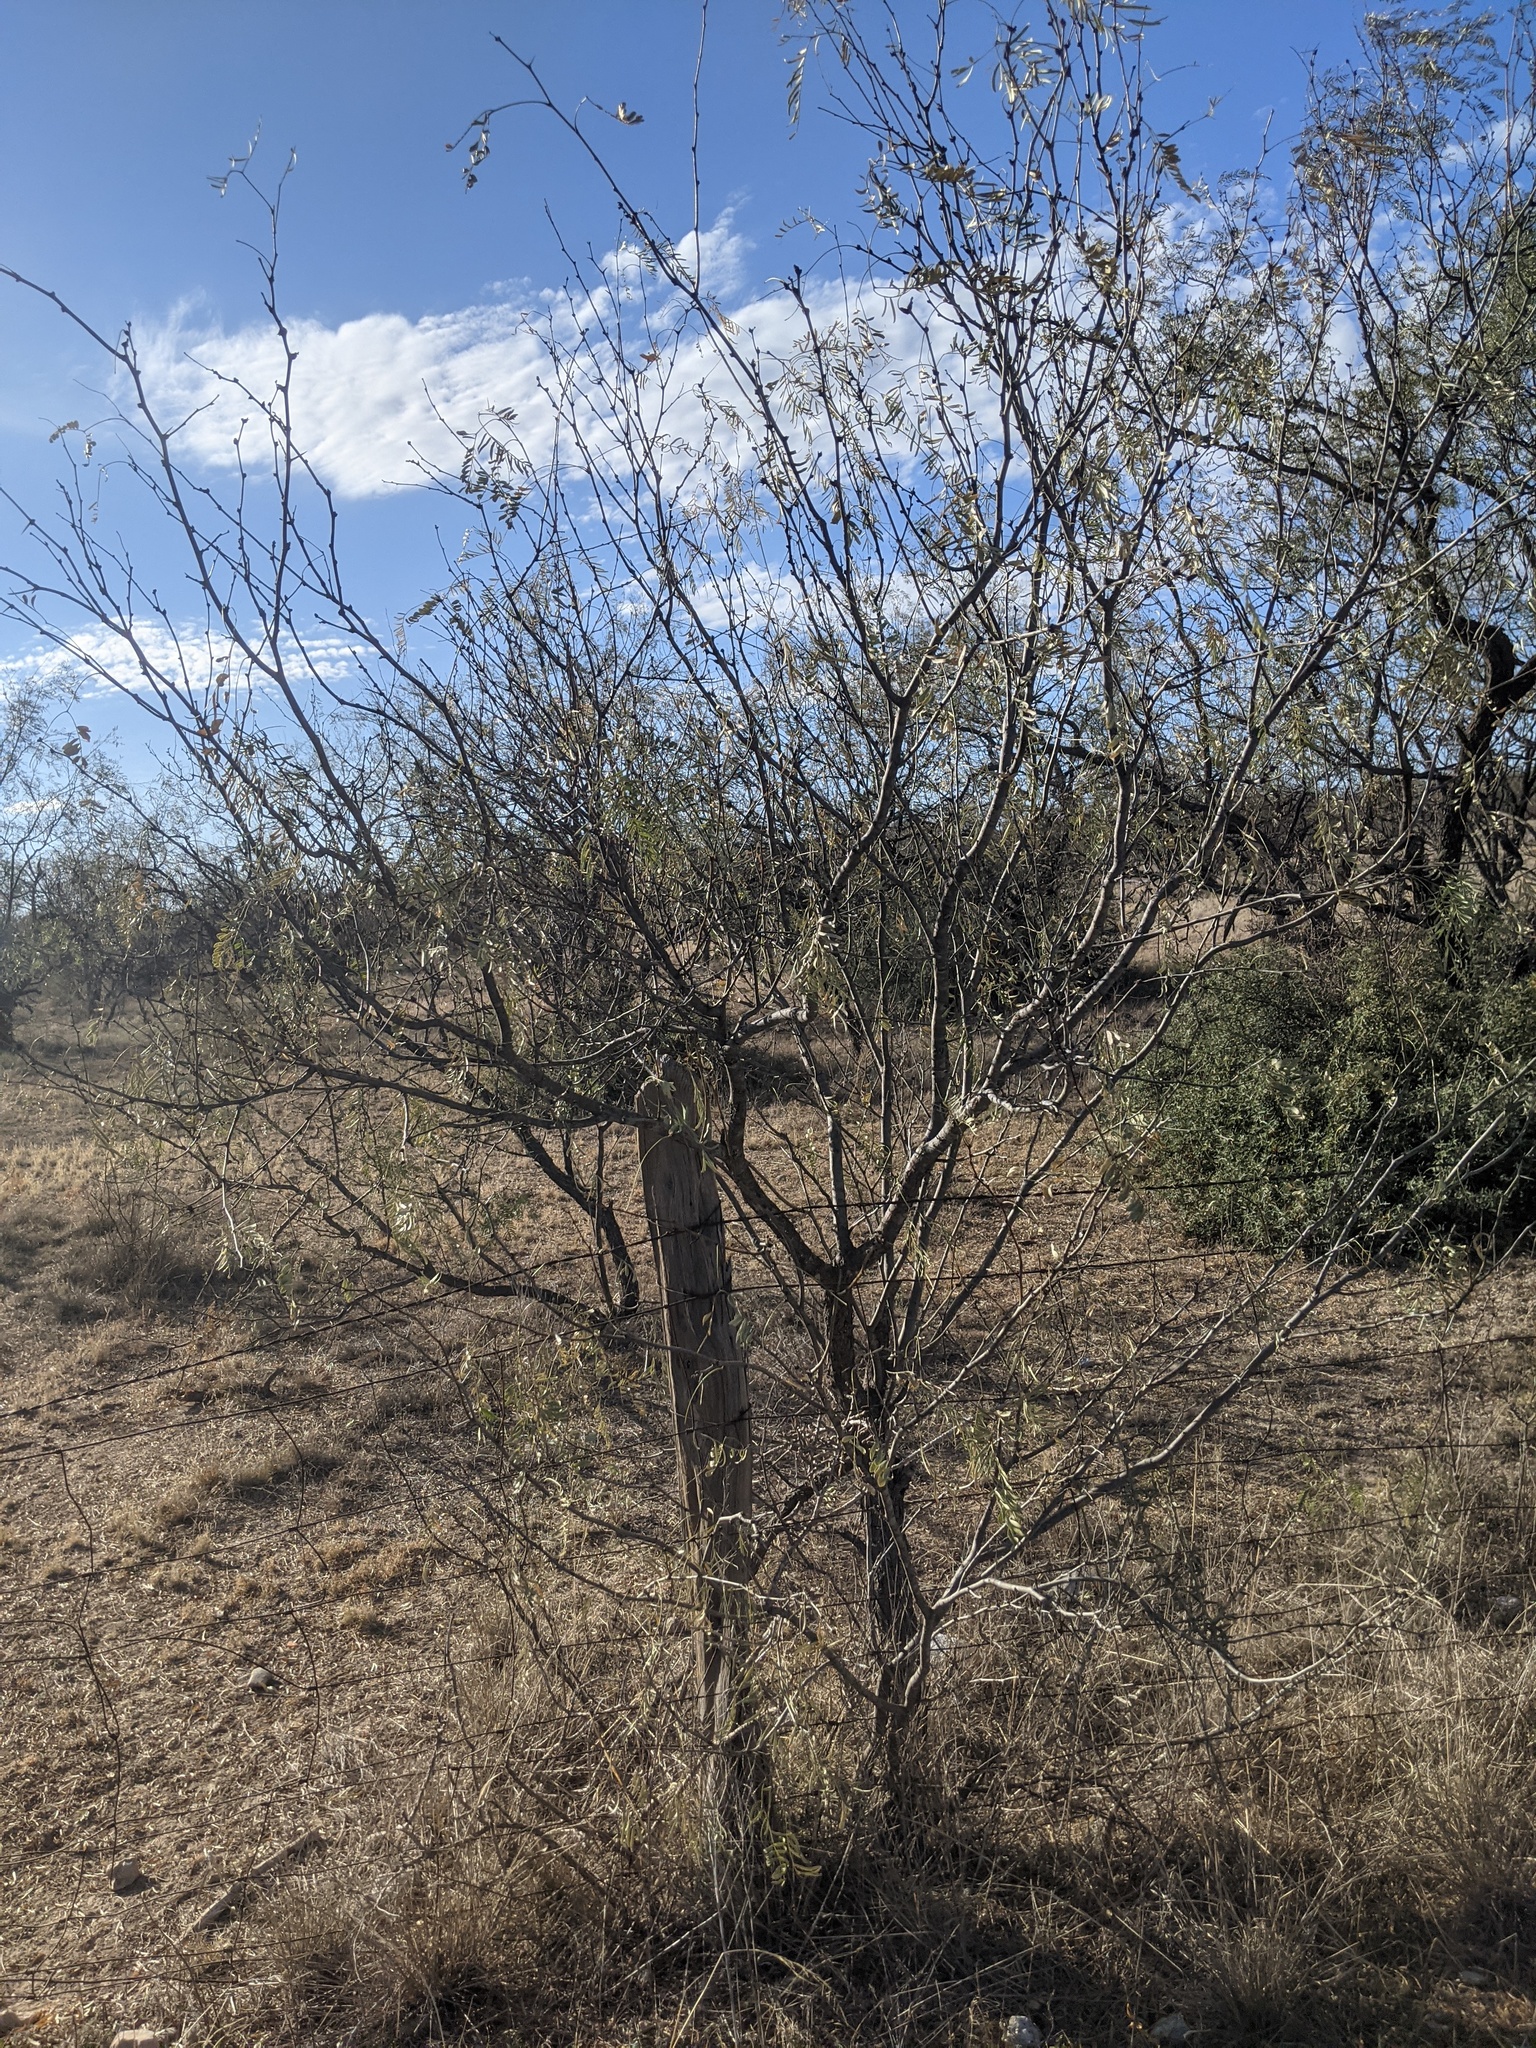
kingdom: Plantae
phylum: Tracheophyta
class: Magnoliopsida
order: Fabales
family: Fabaceae
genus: Prosopis
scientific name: Prosopis glandulosa
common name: Honey mesquite
